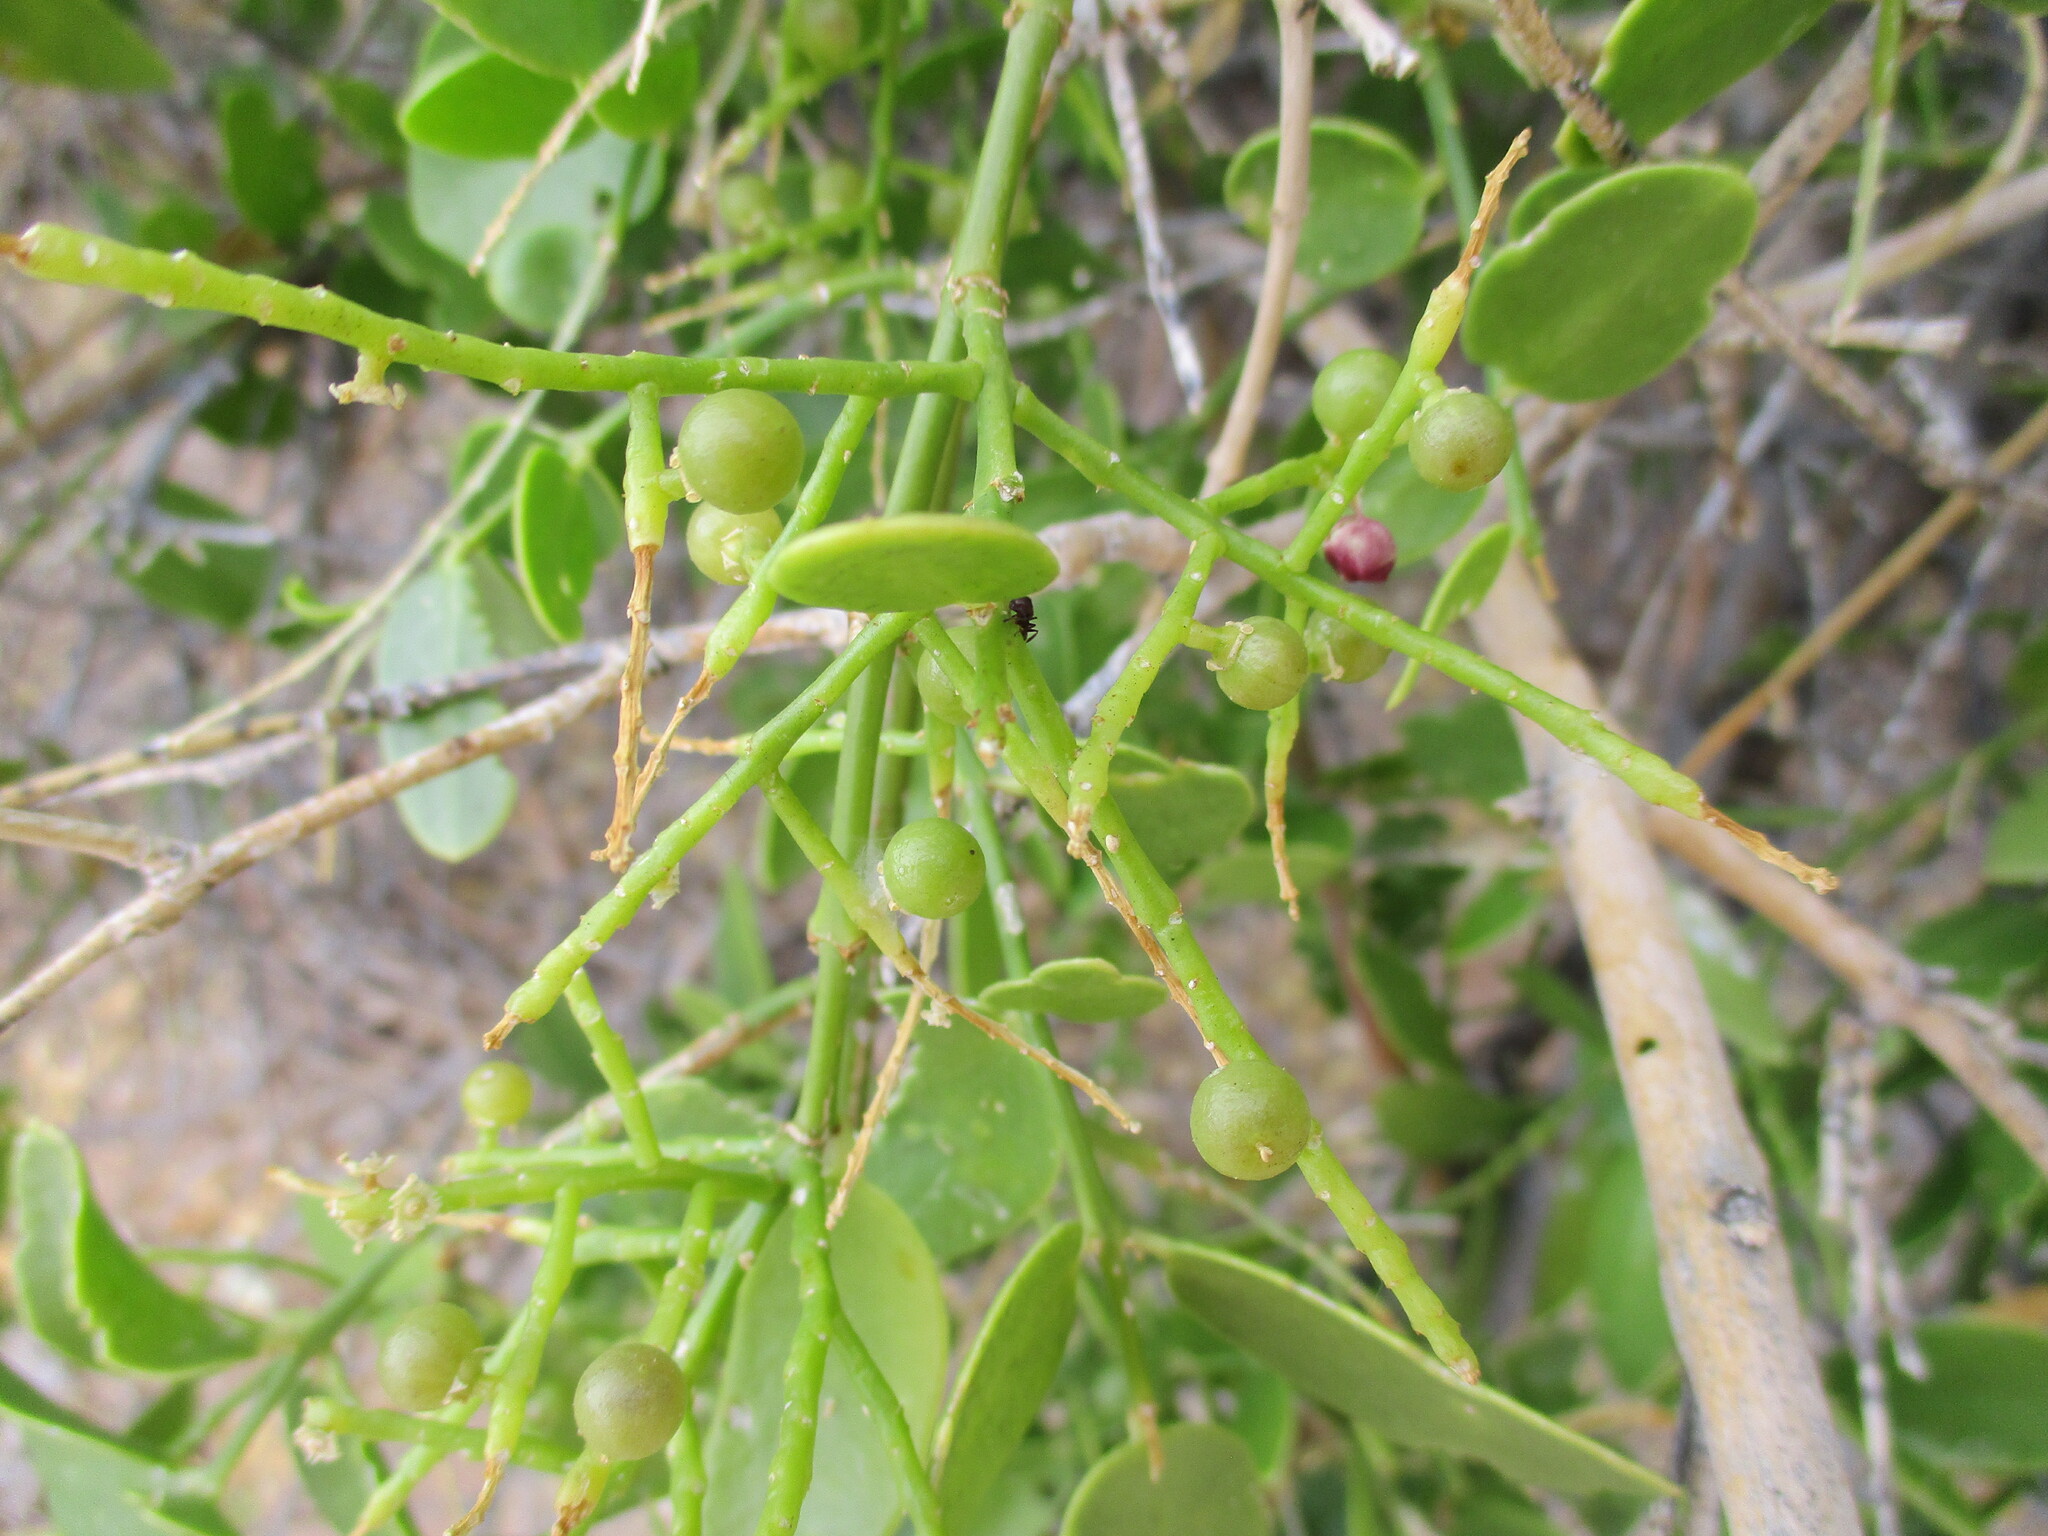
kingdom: Plantae
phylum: Tracheophyta
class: Magnoliopsida
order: Brassicales
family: Salvadoraceae
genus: Salvadora
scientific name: Salvadora persica
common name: Toothbrushtree
